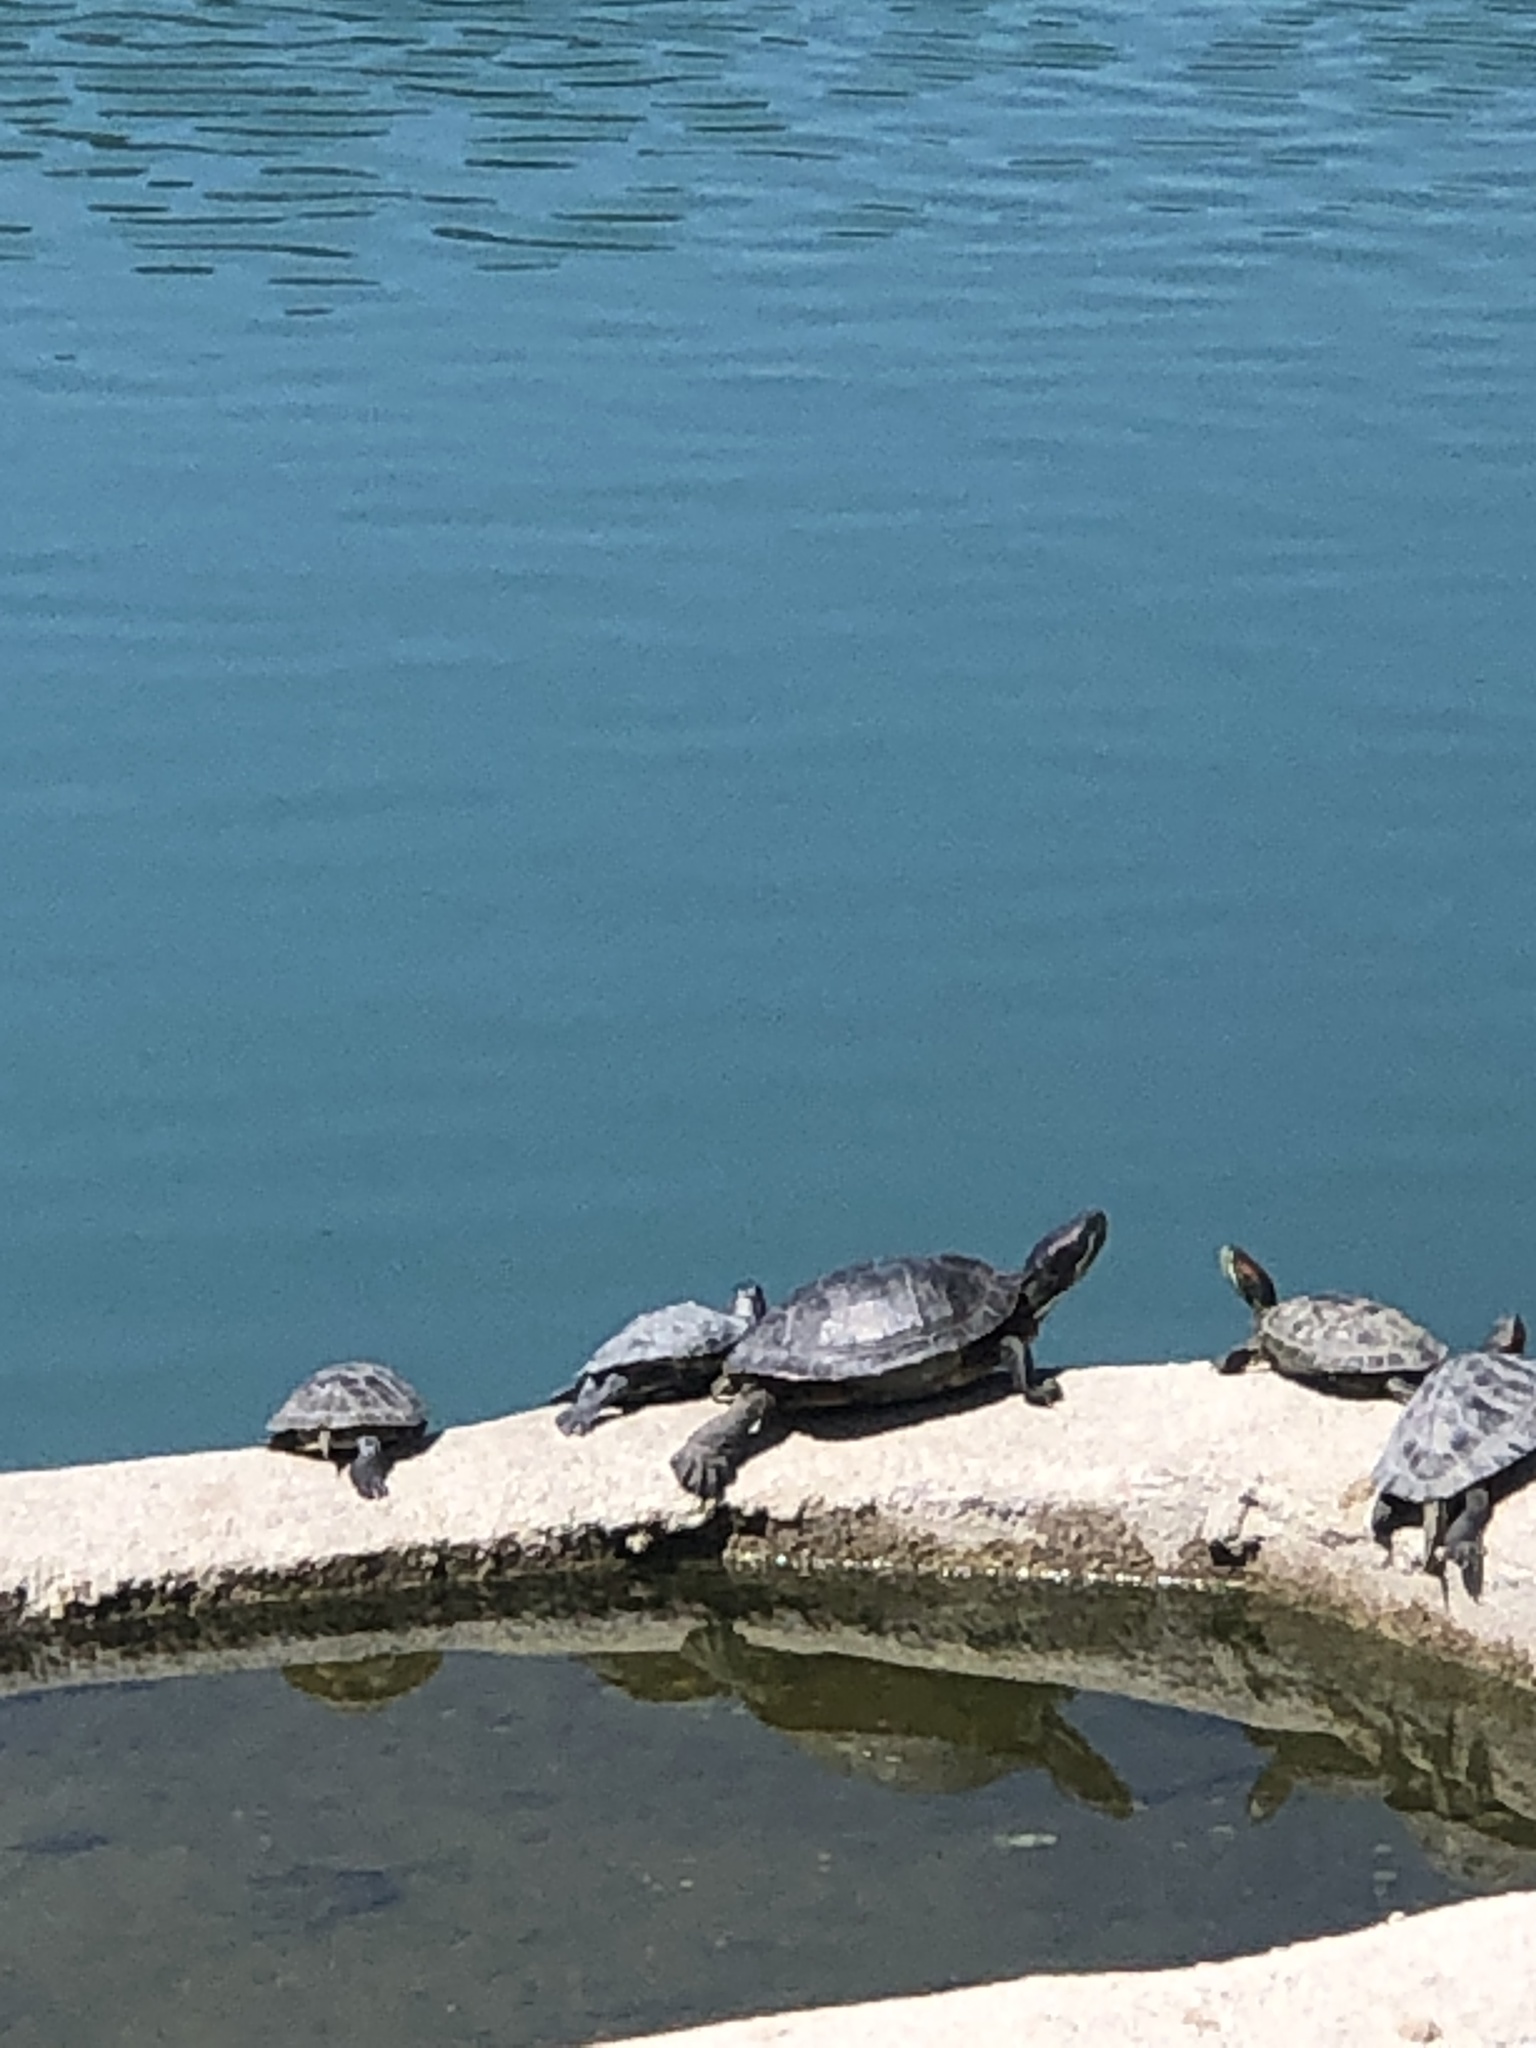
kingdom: Animalia
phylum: Chordata
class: Testudines
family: Emydidae
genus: Trachemys
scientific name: Trachemys scripta
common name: Slider
